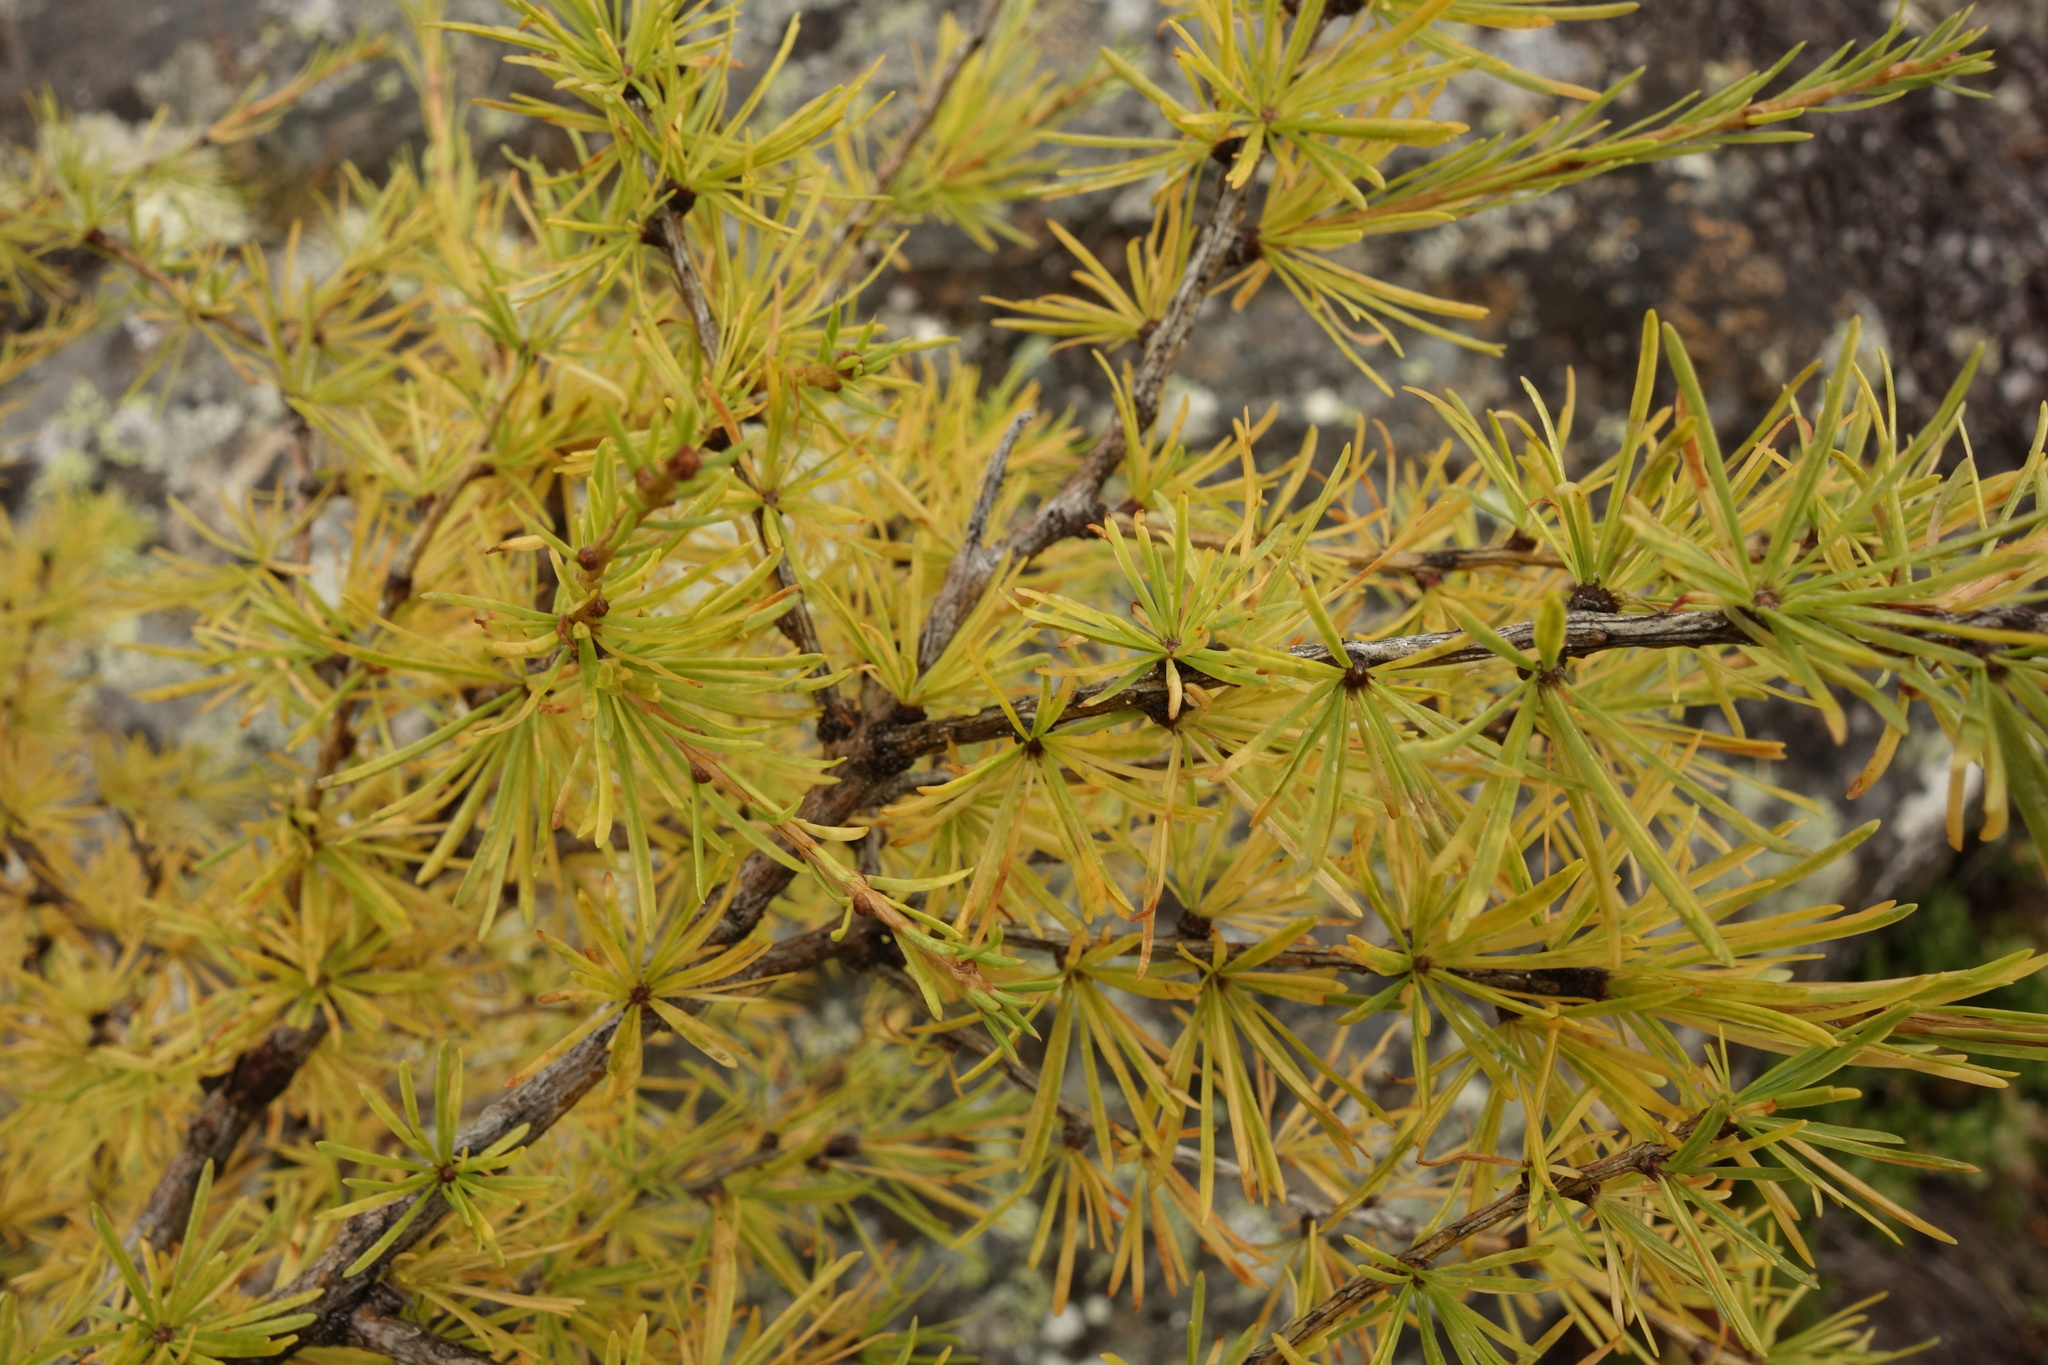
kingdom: Plantae
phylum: Tracheophyta
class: Pinopsida
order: Pinales
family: Pinaceae
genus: Larix
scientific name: Larix sibirica
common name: Siberian larch
